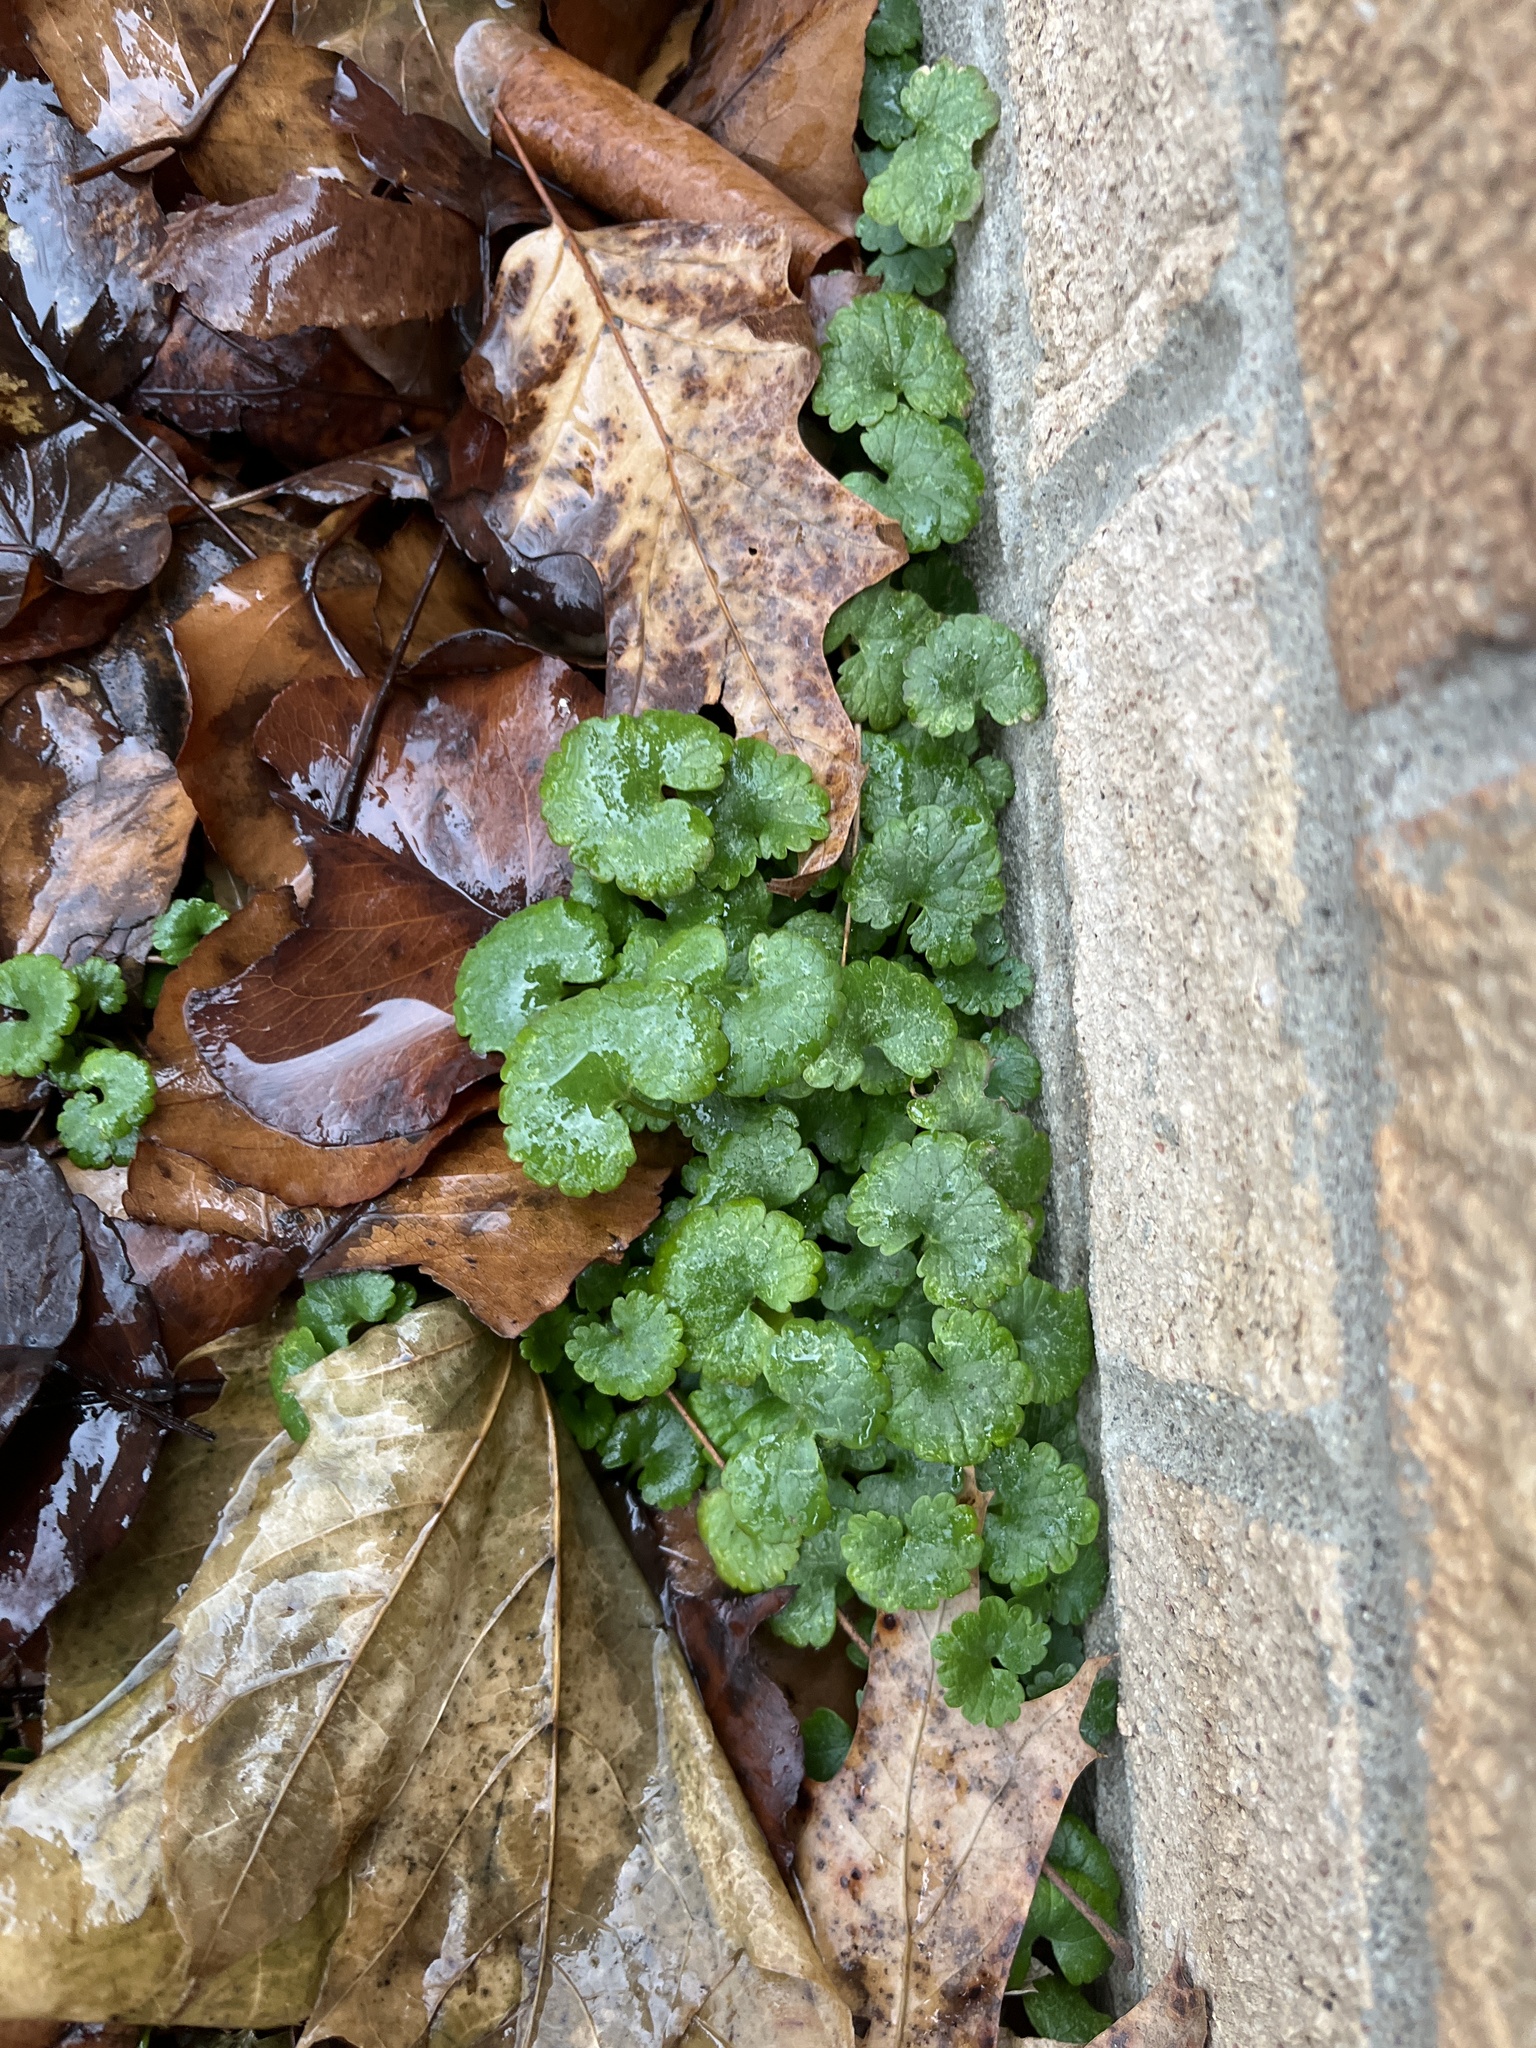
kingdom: Plantae
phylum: Tracheophyta
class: Magnoliopsida
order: Lamiales
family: Lamiaceae
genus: Glechoma
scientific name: Glechoma hederacea
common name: Ground ivy
